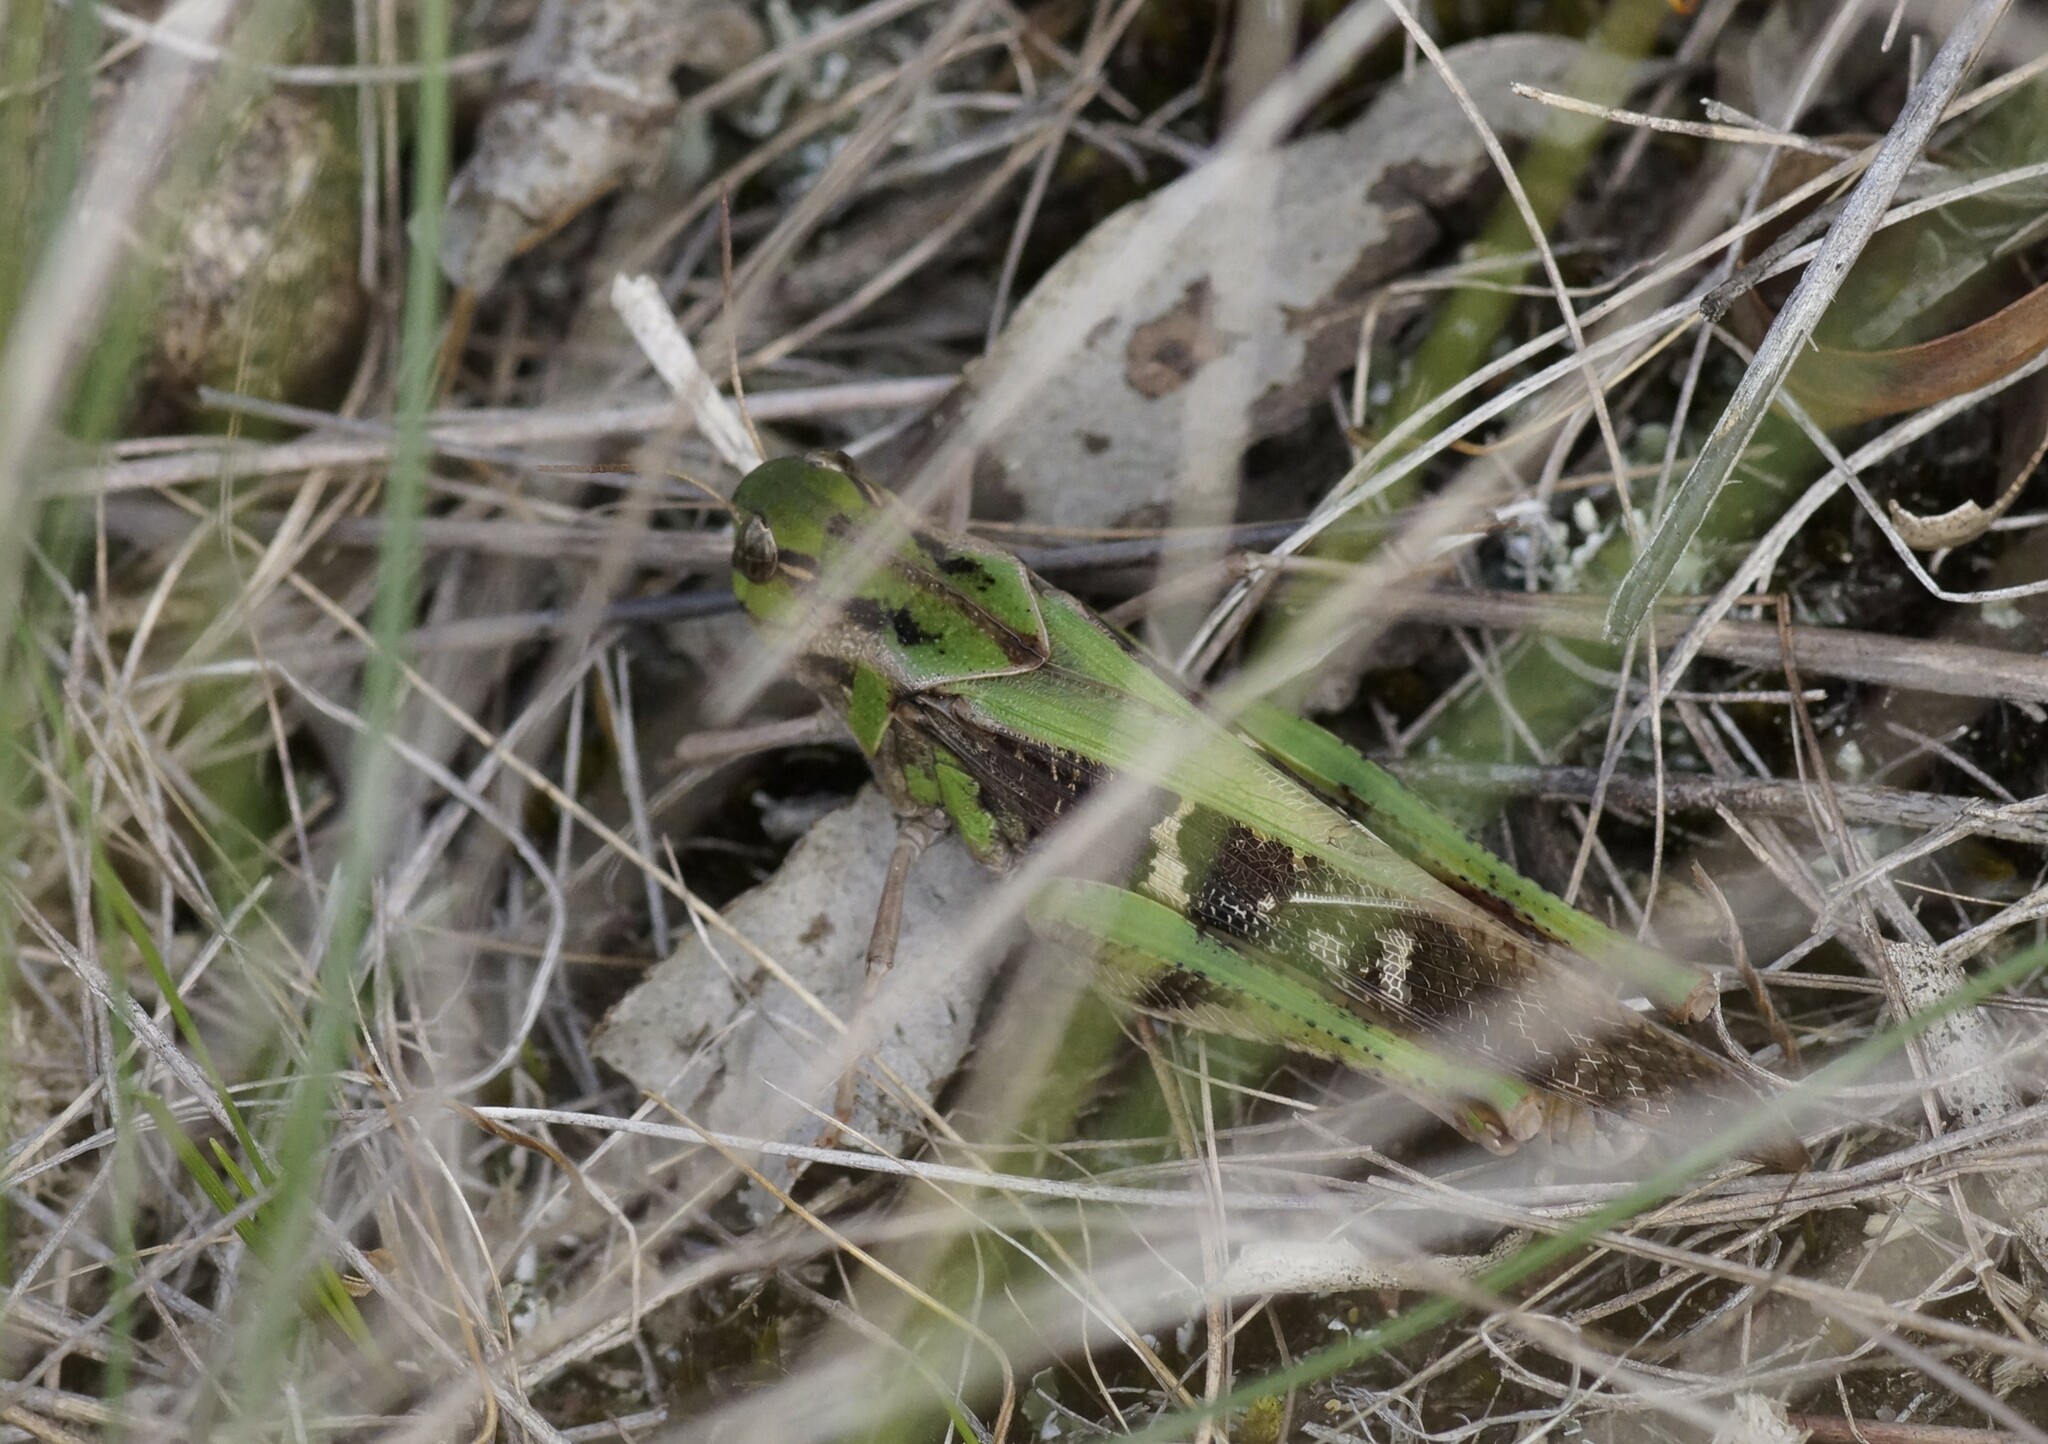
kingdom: Animalia
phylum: Arthropoda
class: Insecta
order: Orthoptera
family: Acrididae
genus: Gastrimargus
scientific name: Gastrimargus musicus
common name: Yellow-winged locust
